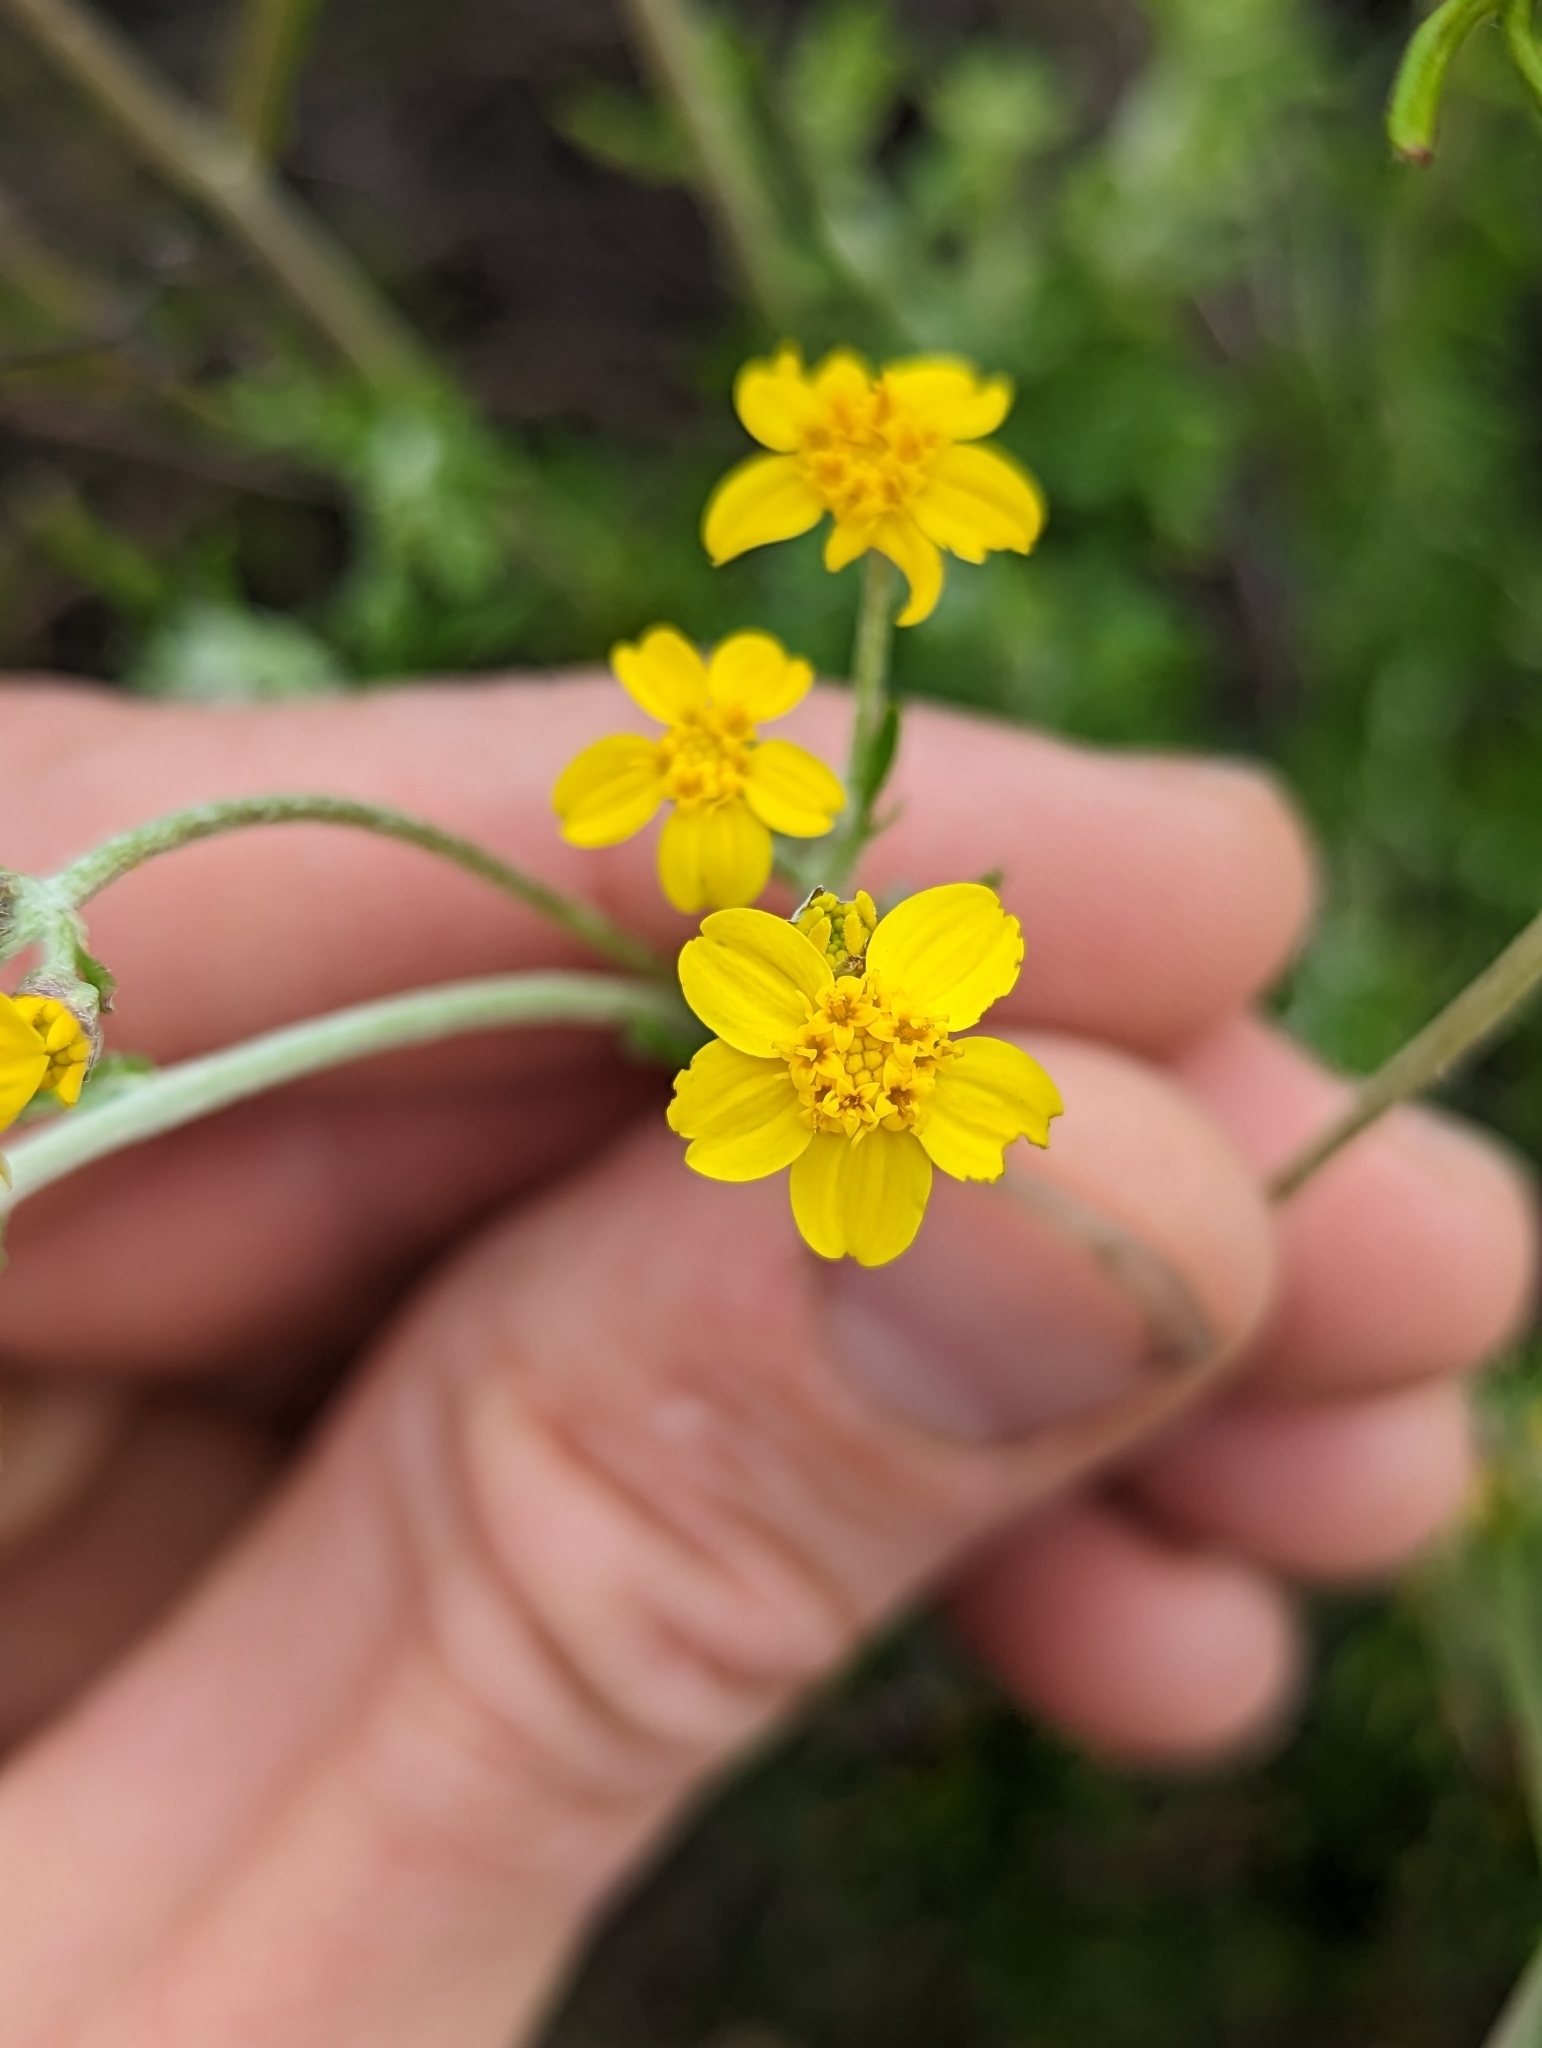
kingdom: Plantae
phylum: Tracheophyta
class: Magnoliopsida
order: Asterales
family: Asteraceae
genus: Eriophyllum
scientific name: Eriophyllum confertiflorum
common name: Golden-yarrow
